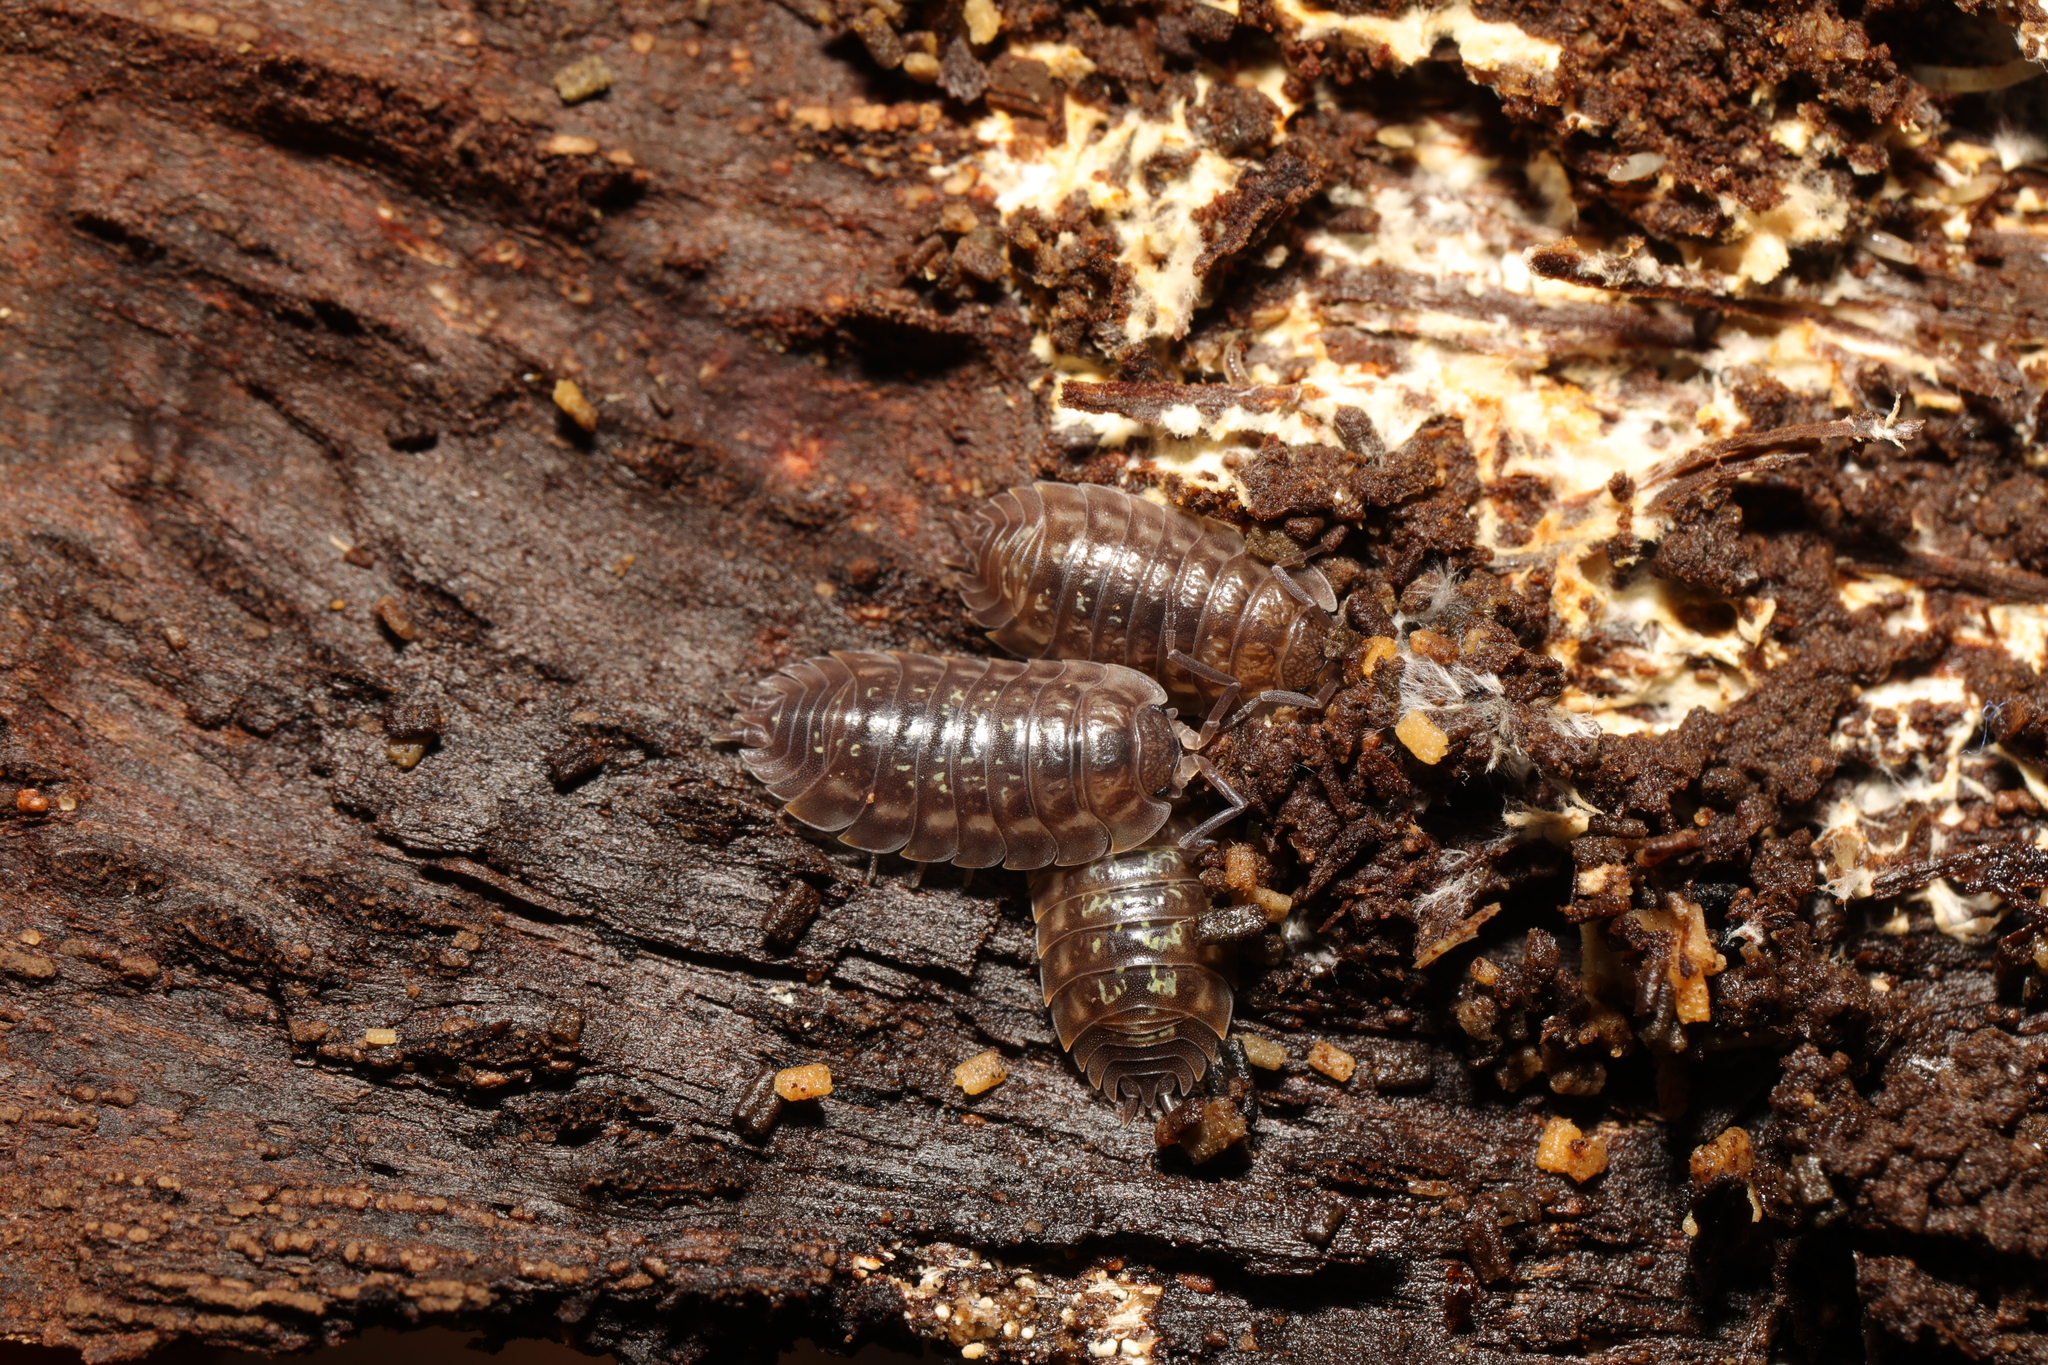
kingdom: Animalia
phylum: Arthropoda
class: Malacostraca
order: Isopoda
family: Oniscidae
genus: Oniscus
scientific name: Oniscus asellus
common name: Common shiny woodlouse
